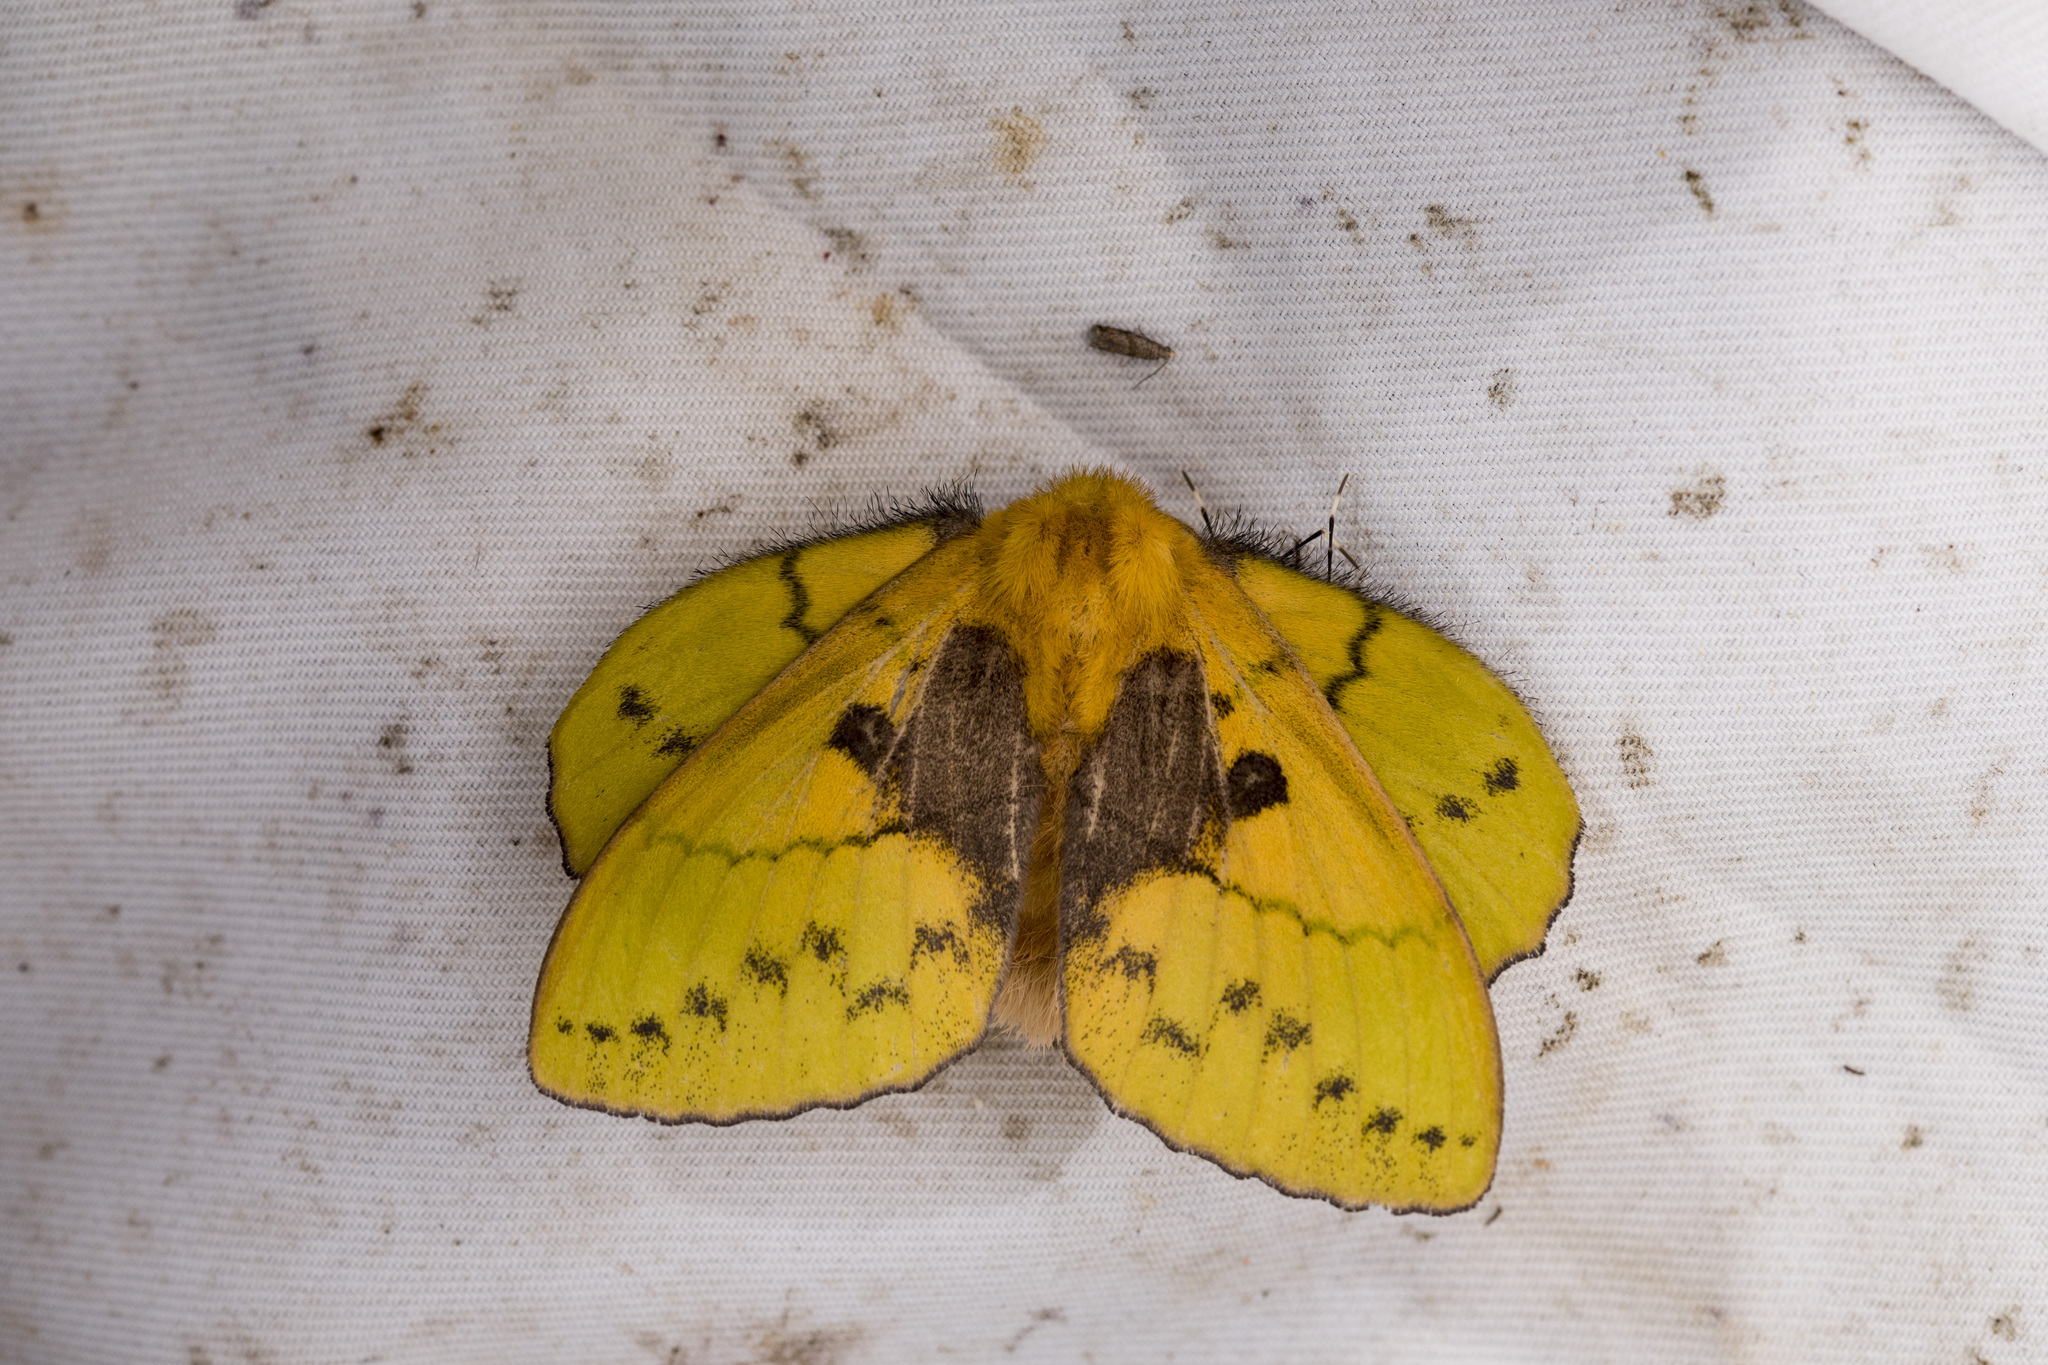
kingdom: Animalia
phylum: Arthropoda
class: Insecta
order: Lepidoptera
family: Lasiocampidae
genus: Trabala
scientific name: Trabala vishnou
